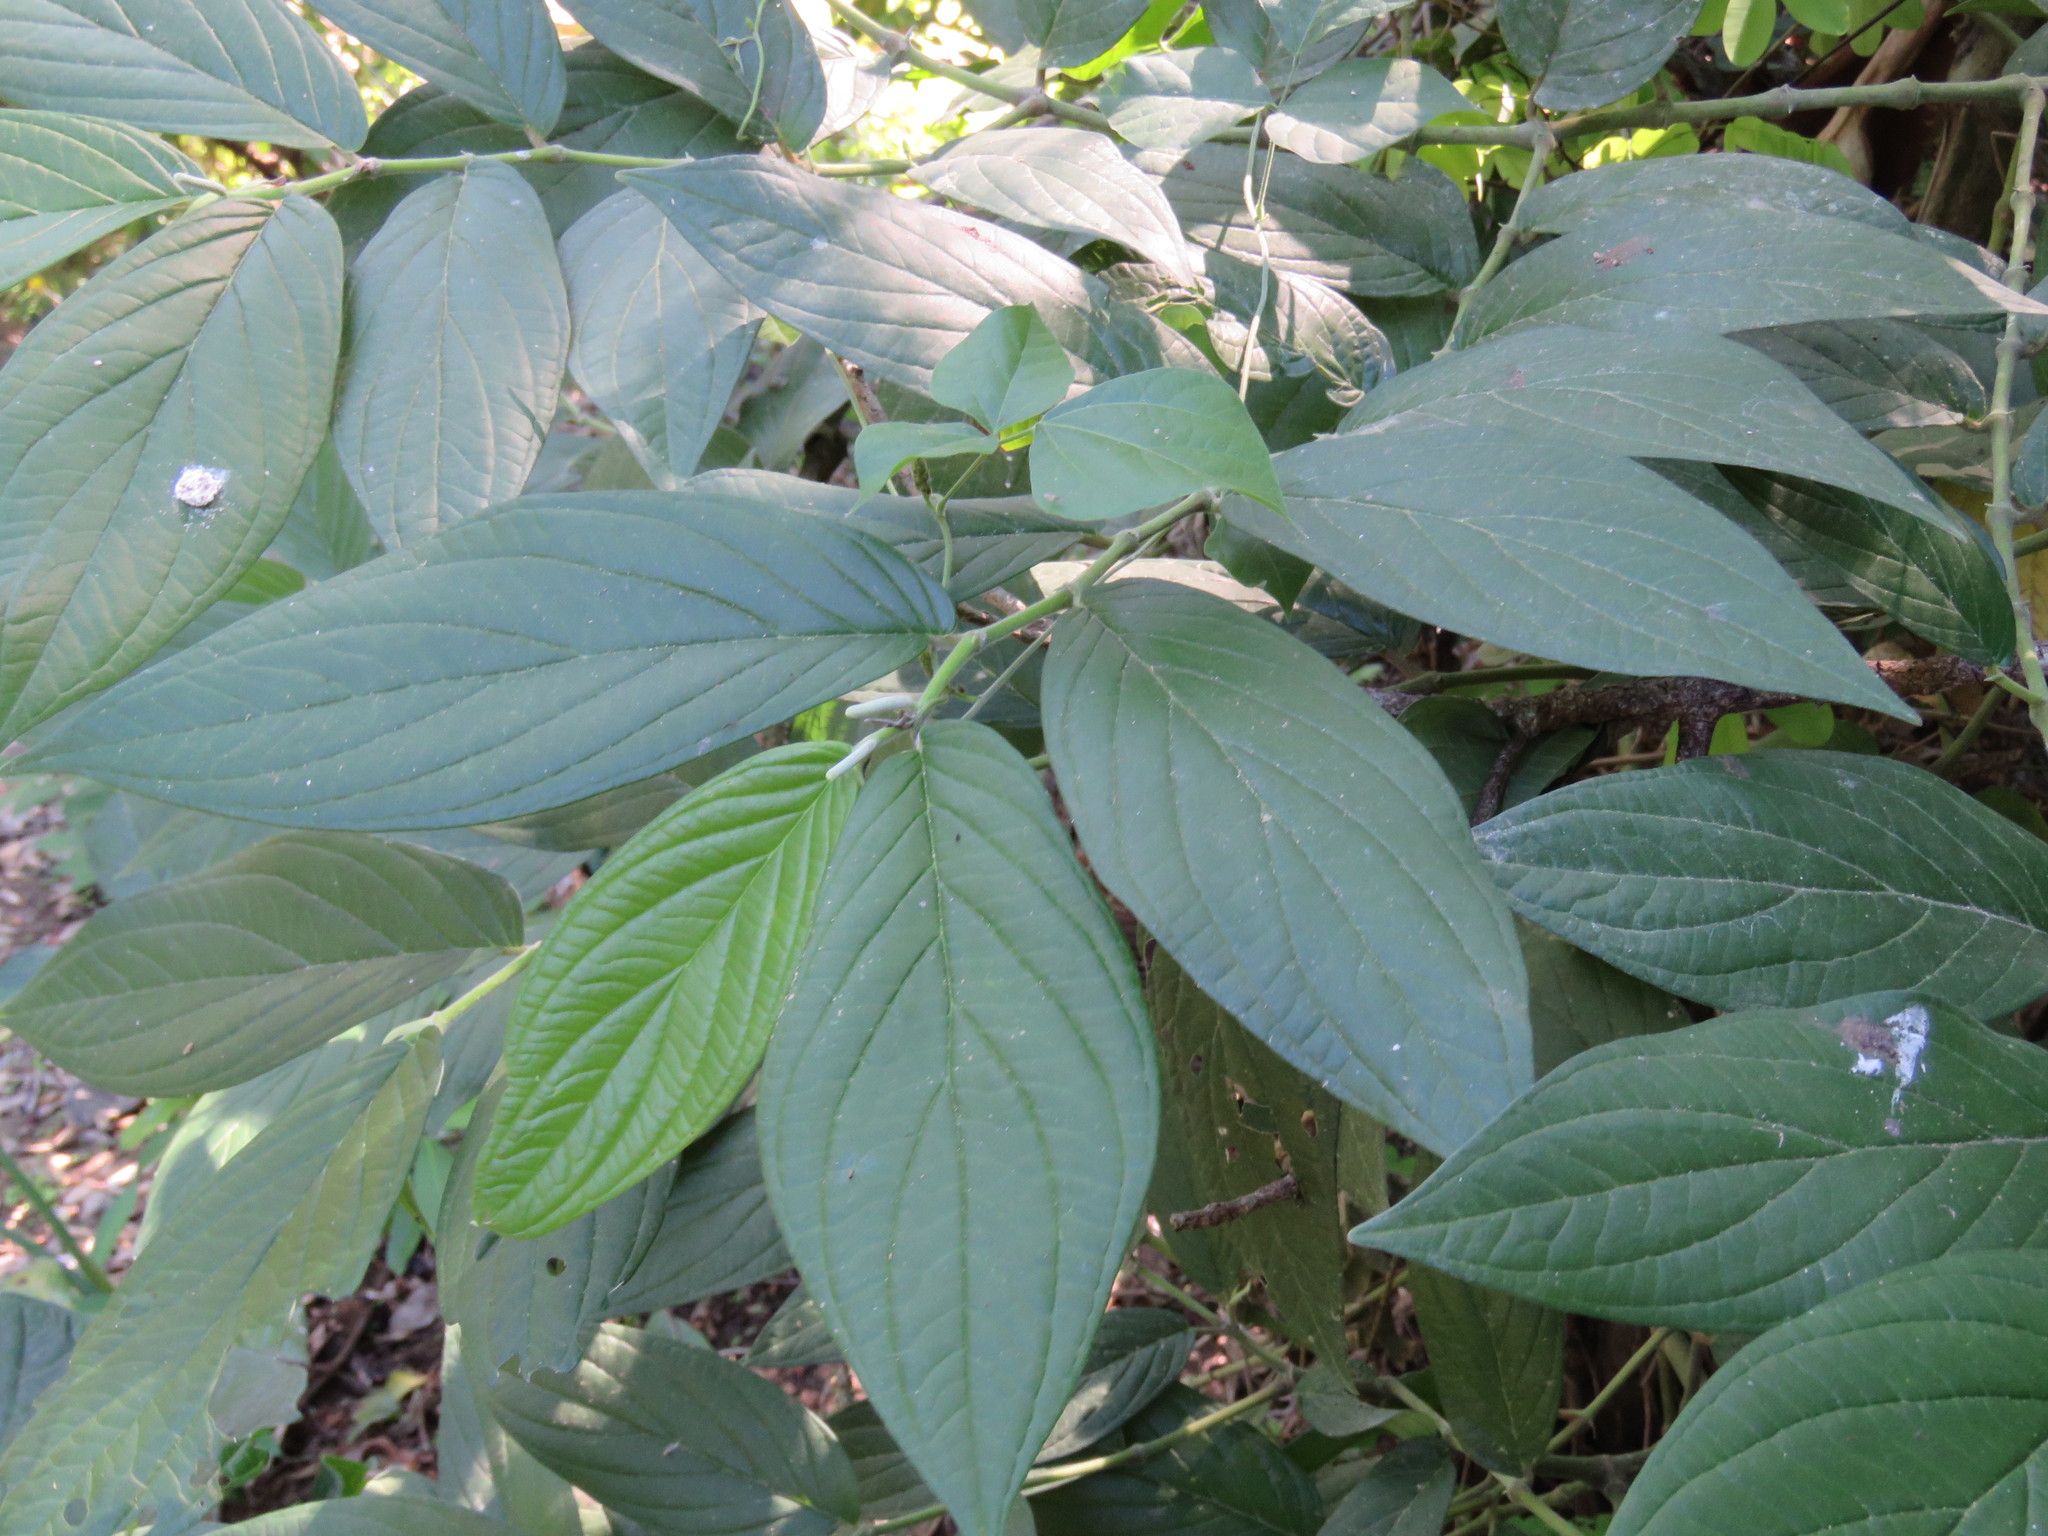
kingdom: Plantae
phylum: Tracheophyta
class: Magnoliopsida
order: Piperales
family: Piperaceae
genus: Piper
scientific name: Piper hispidum
